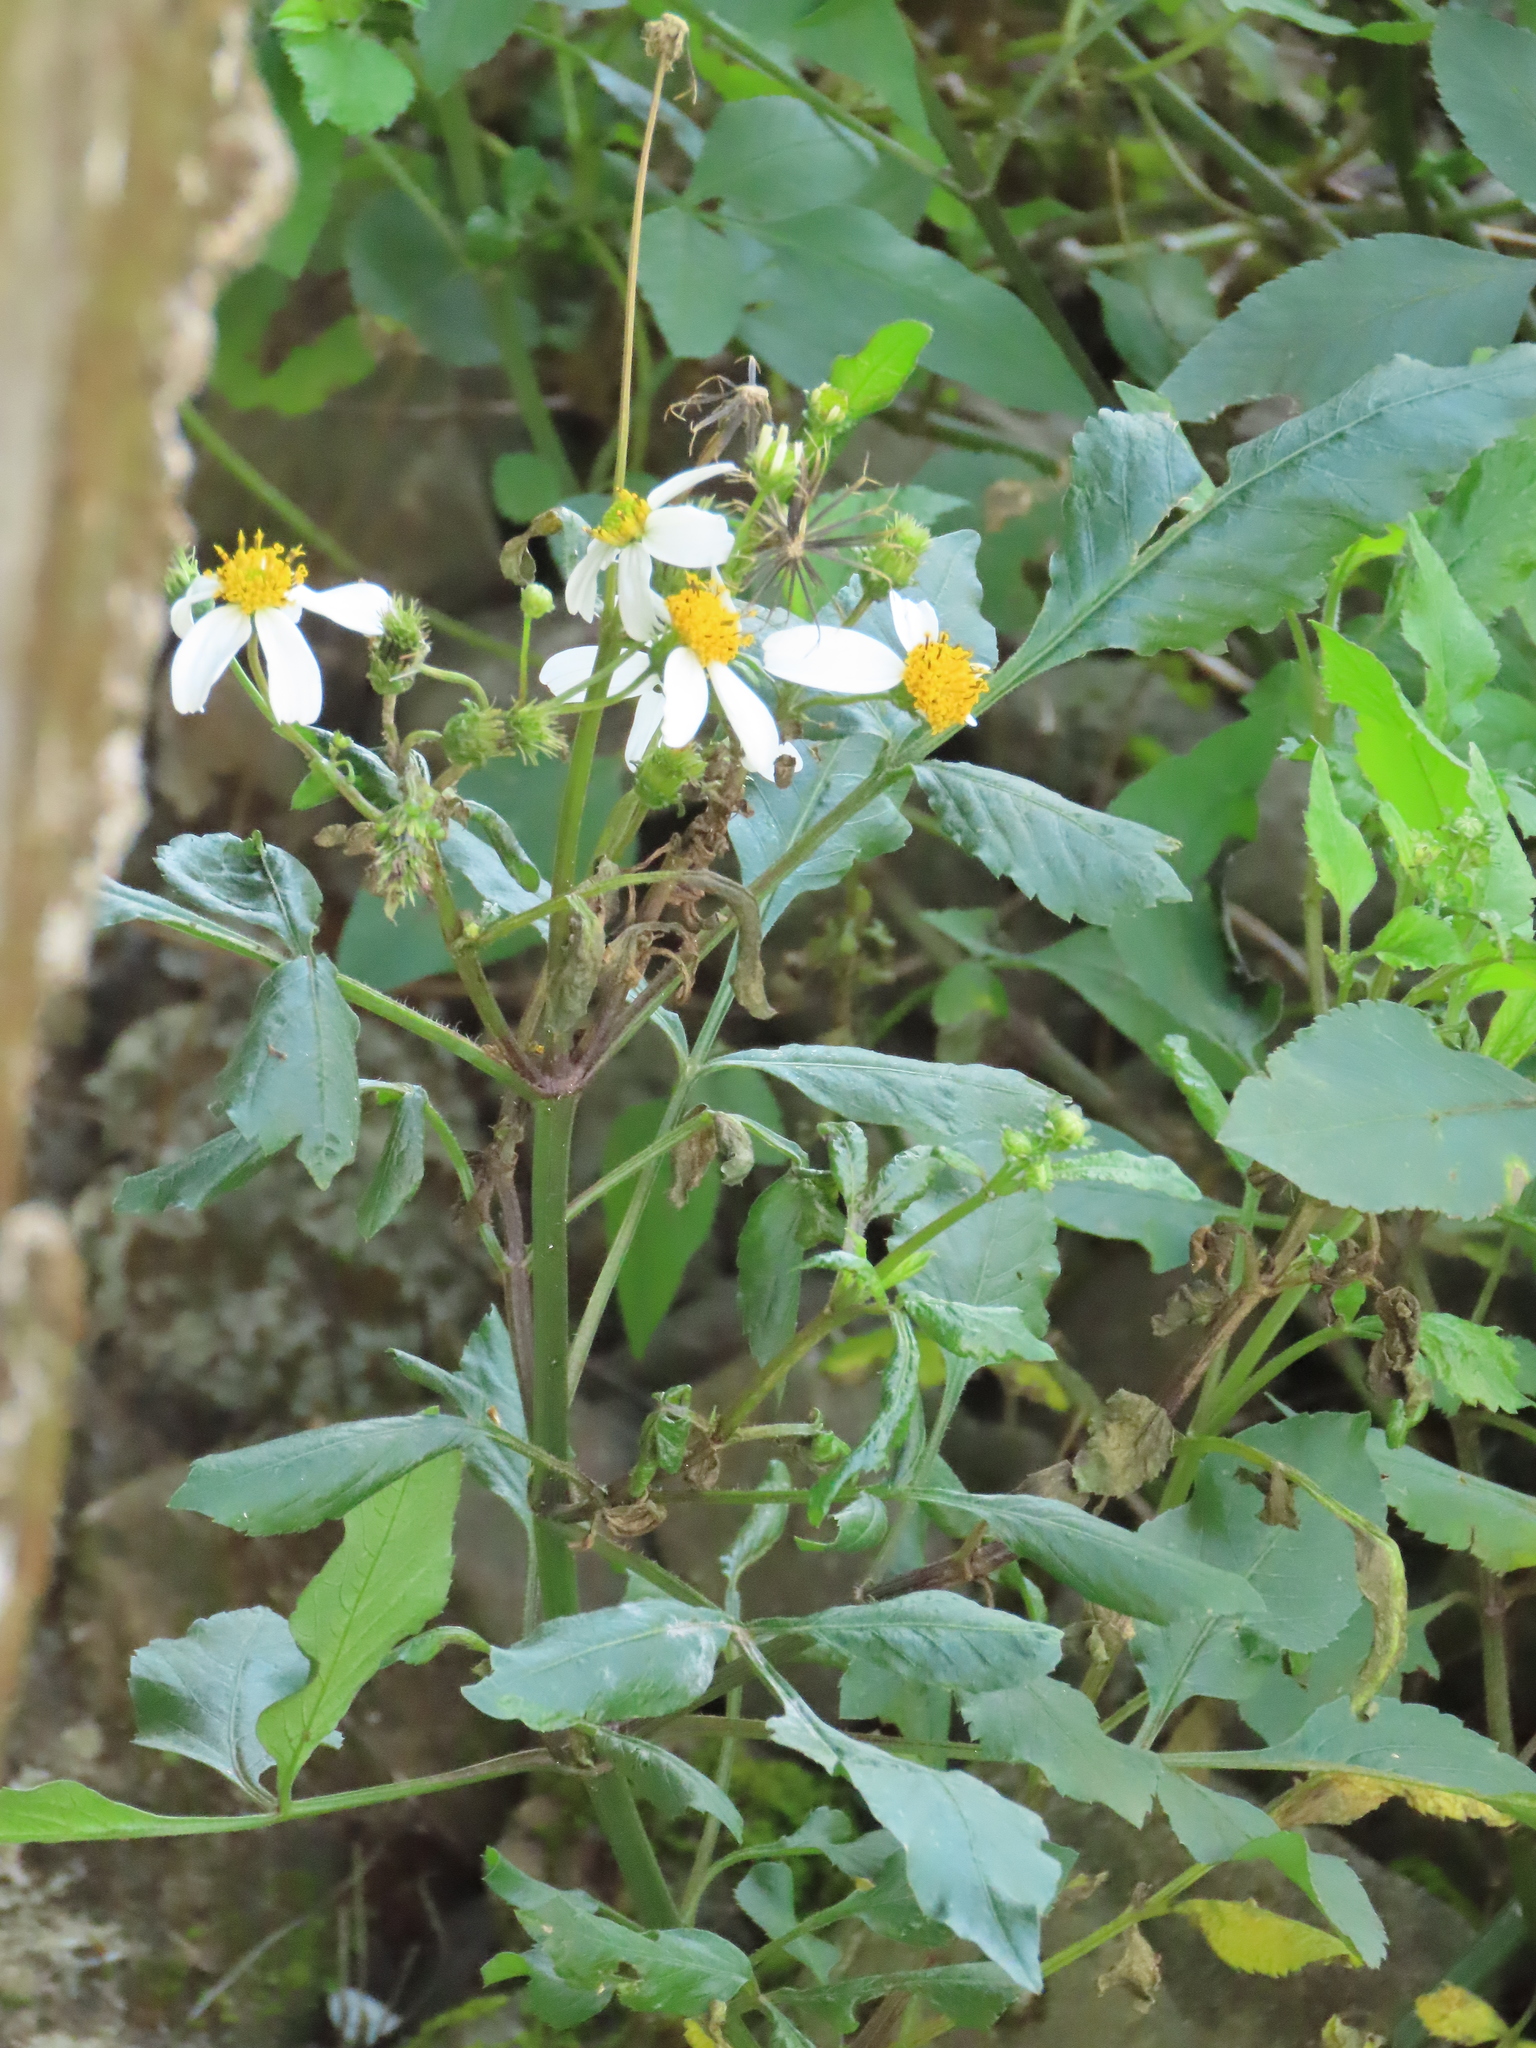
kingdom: Plantae
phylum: Tracheophyta
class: Magnoliopsida
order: Asterales
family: Asteraceae
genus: Bidens
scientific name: Bidens alba
